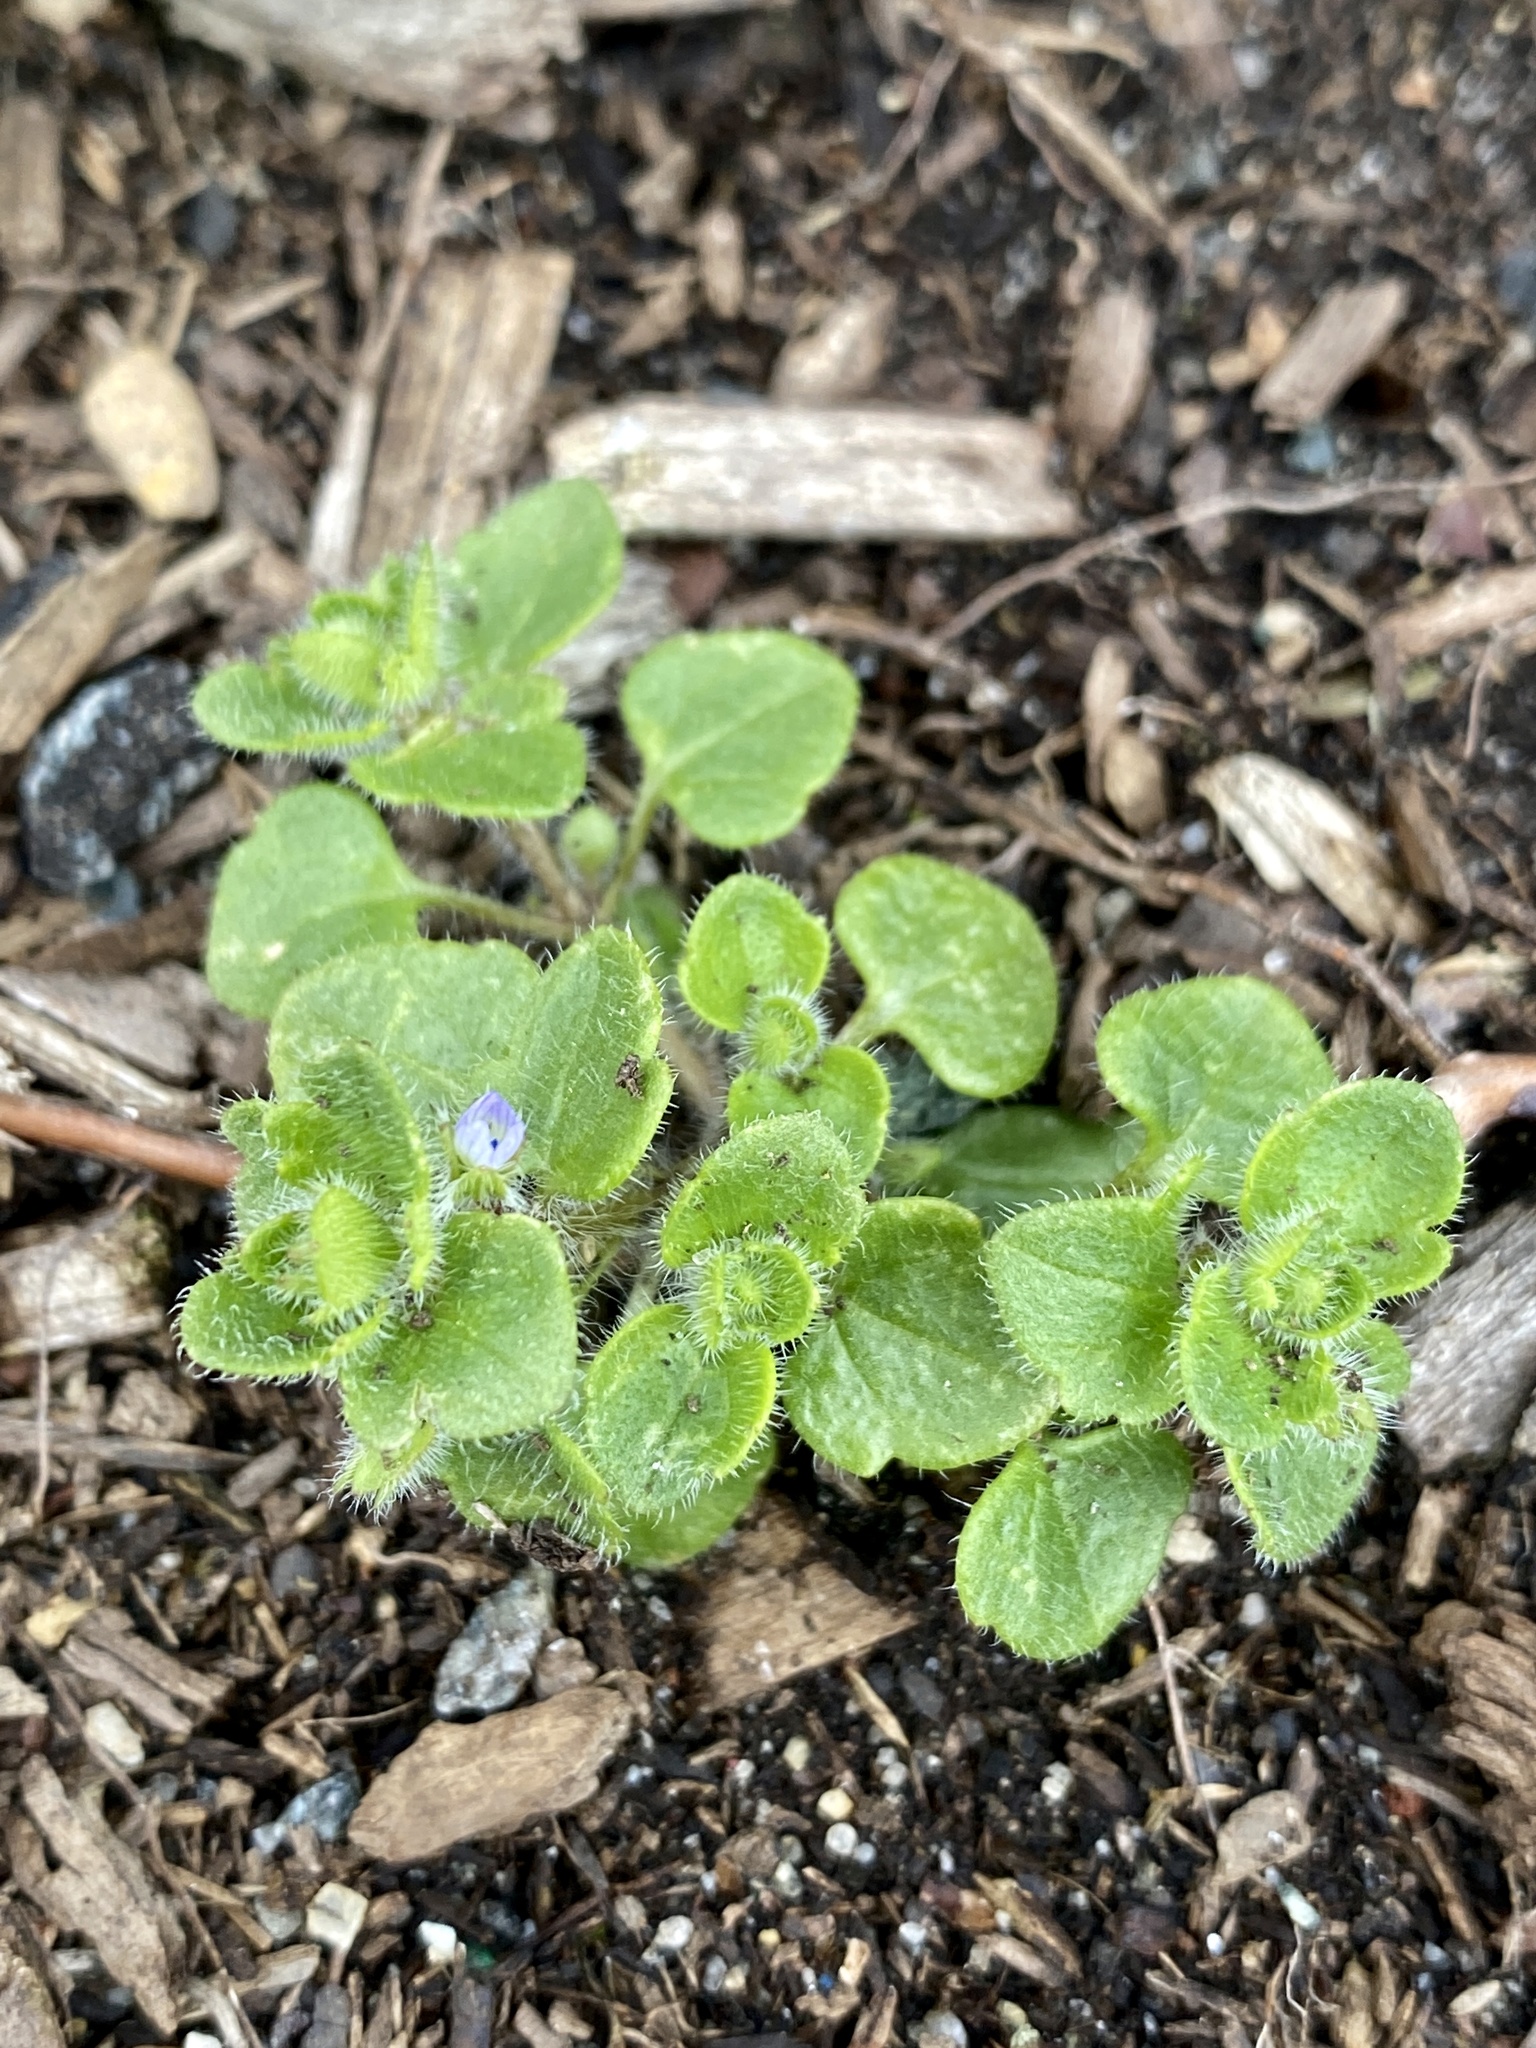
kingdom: Plantae
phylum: Tracheophyta
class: Magnoliopsida
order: Lamiales
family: Plantaginaceae
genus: Veronica
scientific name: Veronica hederifolia
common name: Ivy-leaved speedwell
